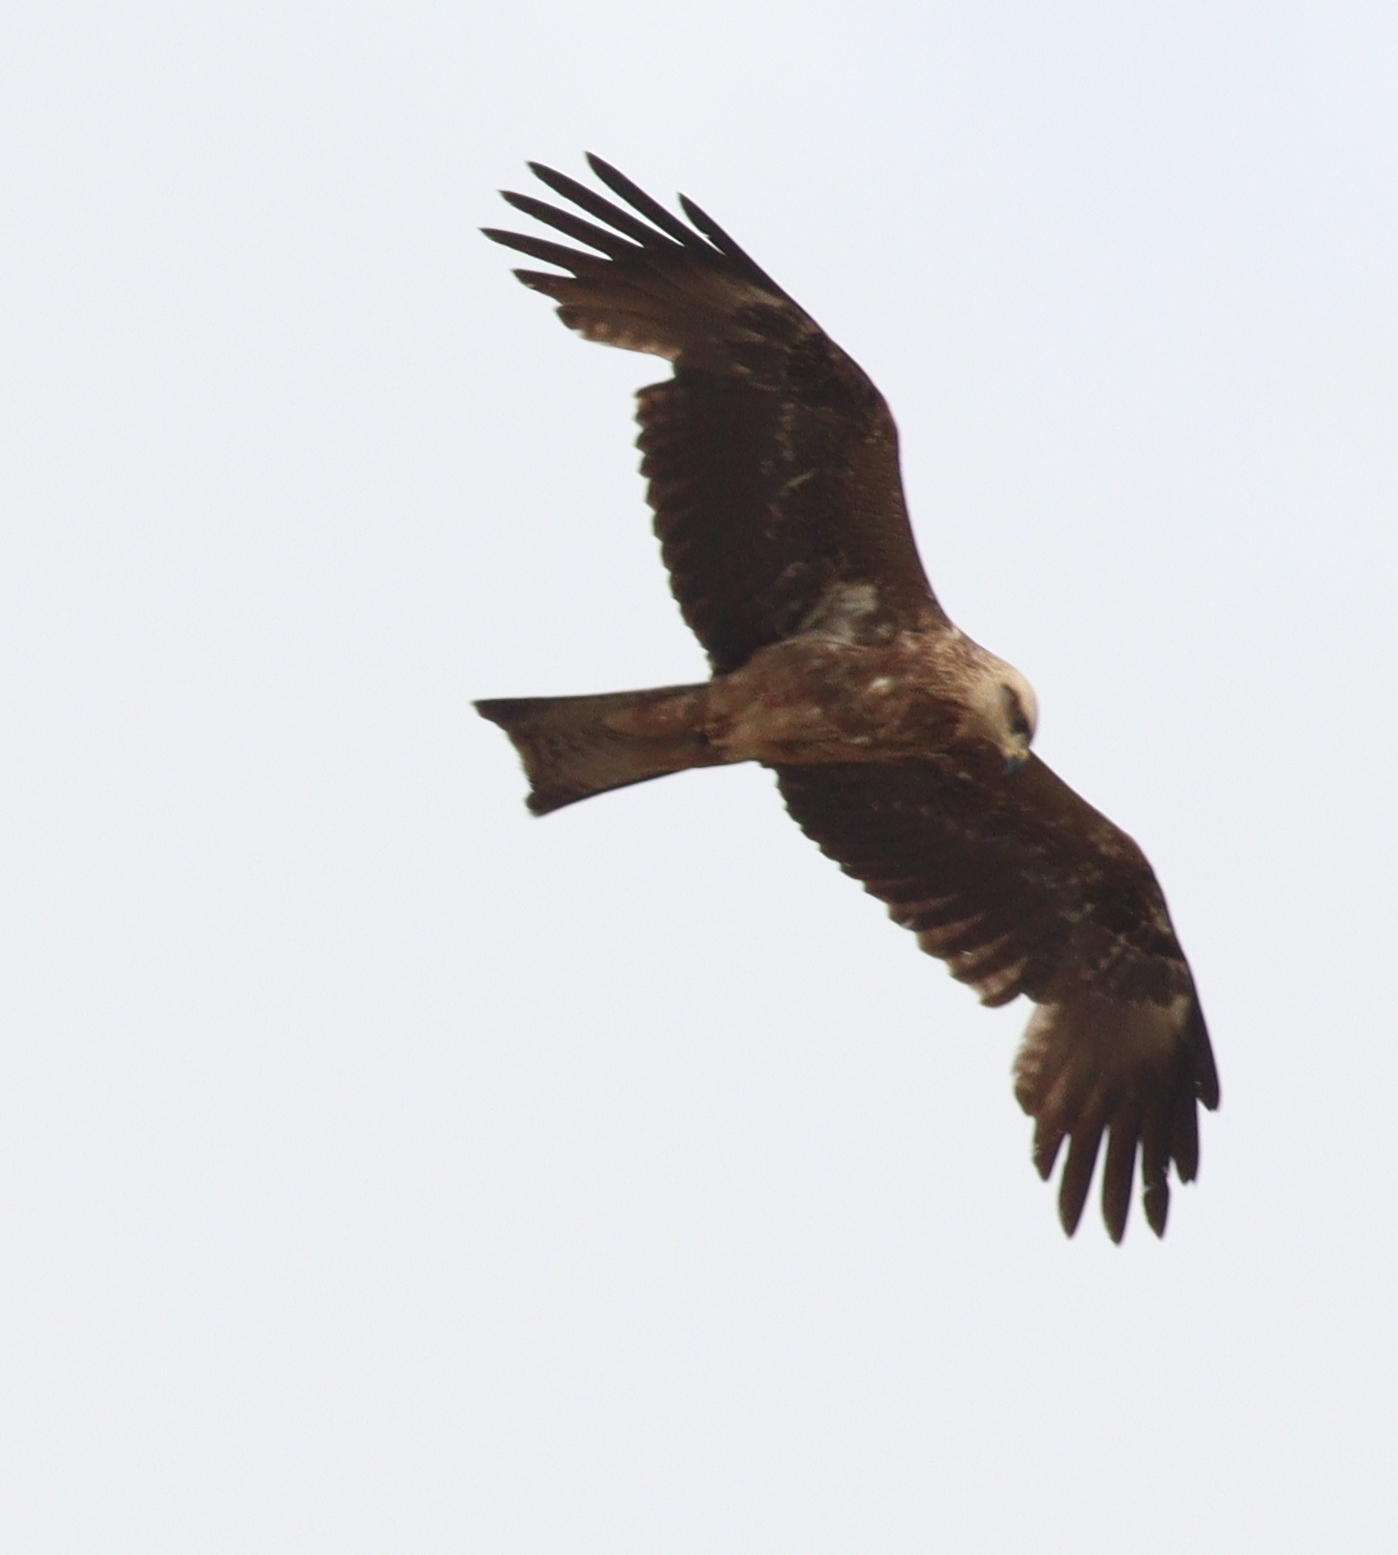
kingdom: Animalia
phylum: Chordata
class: Aves
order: Accipitriformes
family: Accipitridae
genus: Milvus
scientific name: Milvus migrans
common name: Black kite
